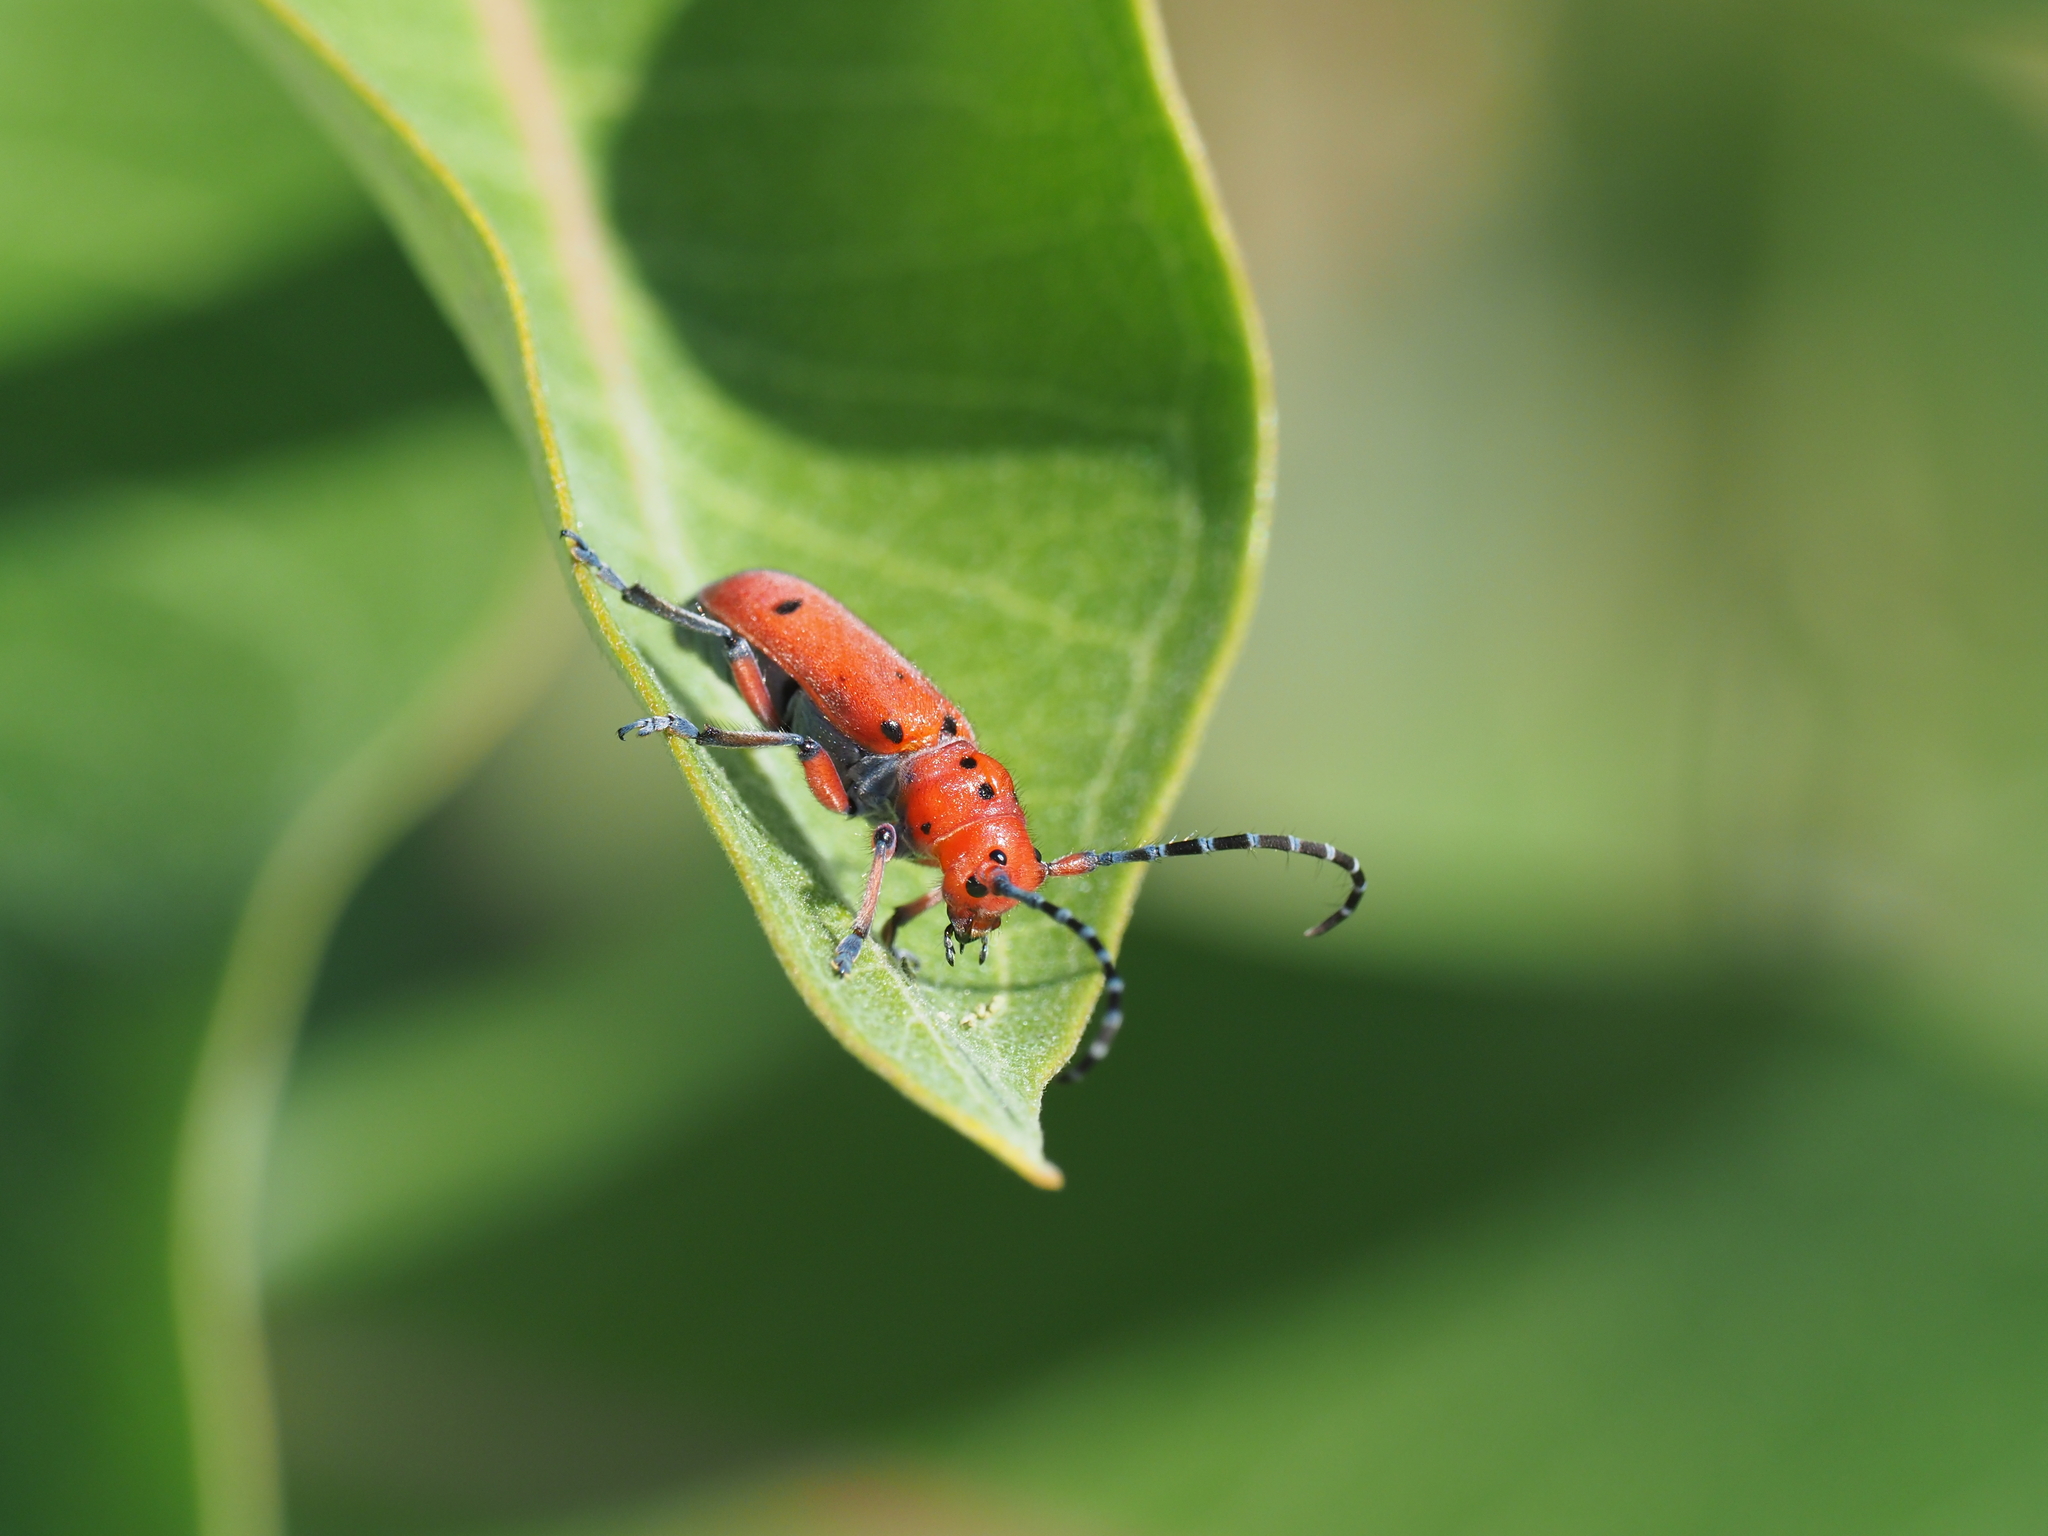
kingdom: Animalia
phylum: Arthropoda
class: Insecta
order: Coleoptera
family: Cerambycidae
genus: Tetraopes
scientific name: Tetraopes femoratus
